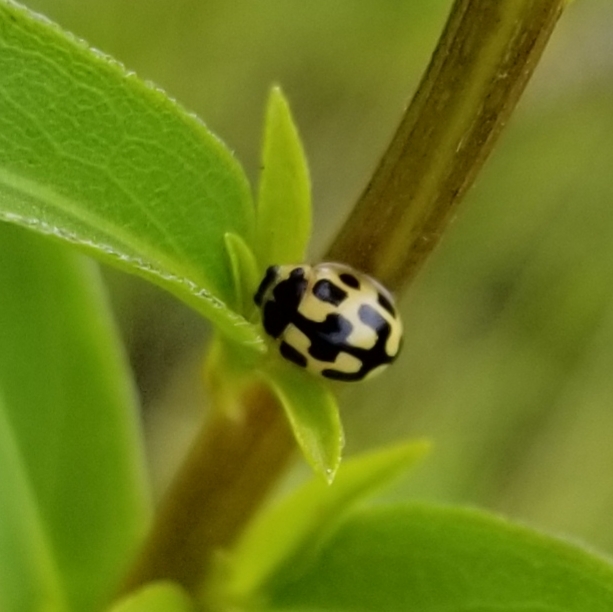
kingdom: Animalia
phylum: Arthropoda
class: Insecta
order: Coleoptera
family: Coccinellidae
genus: Propylaea
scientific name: Propylaea quatuordecimpunctata
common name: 14-spotted ladybird beetle
